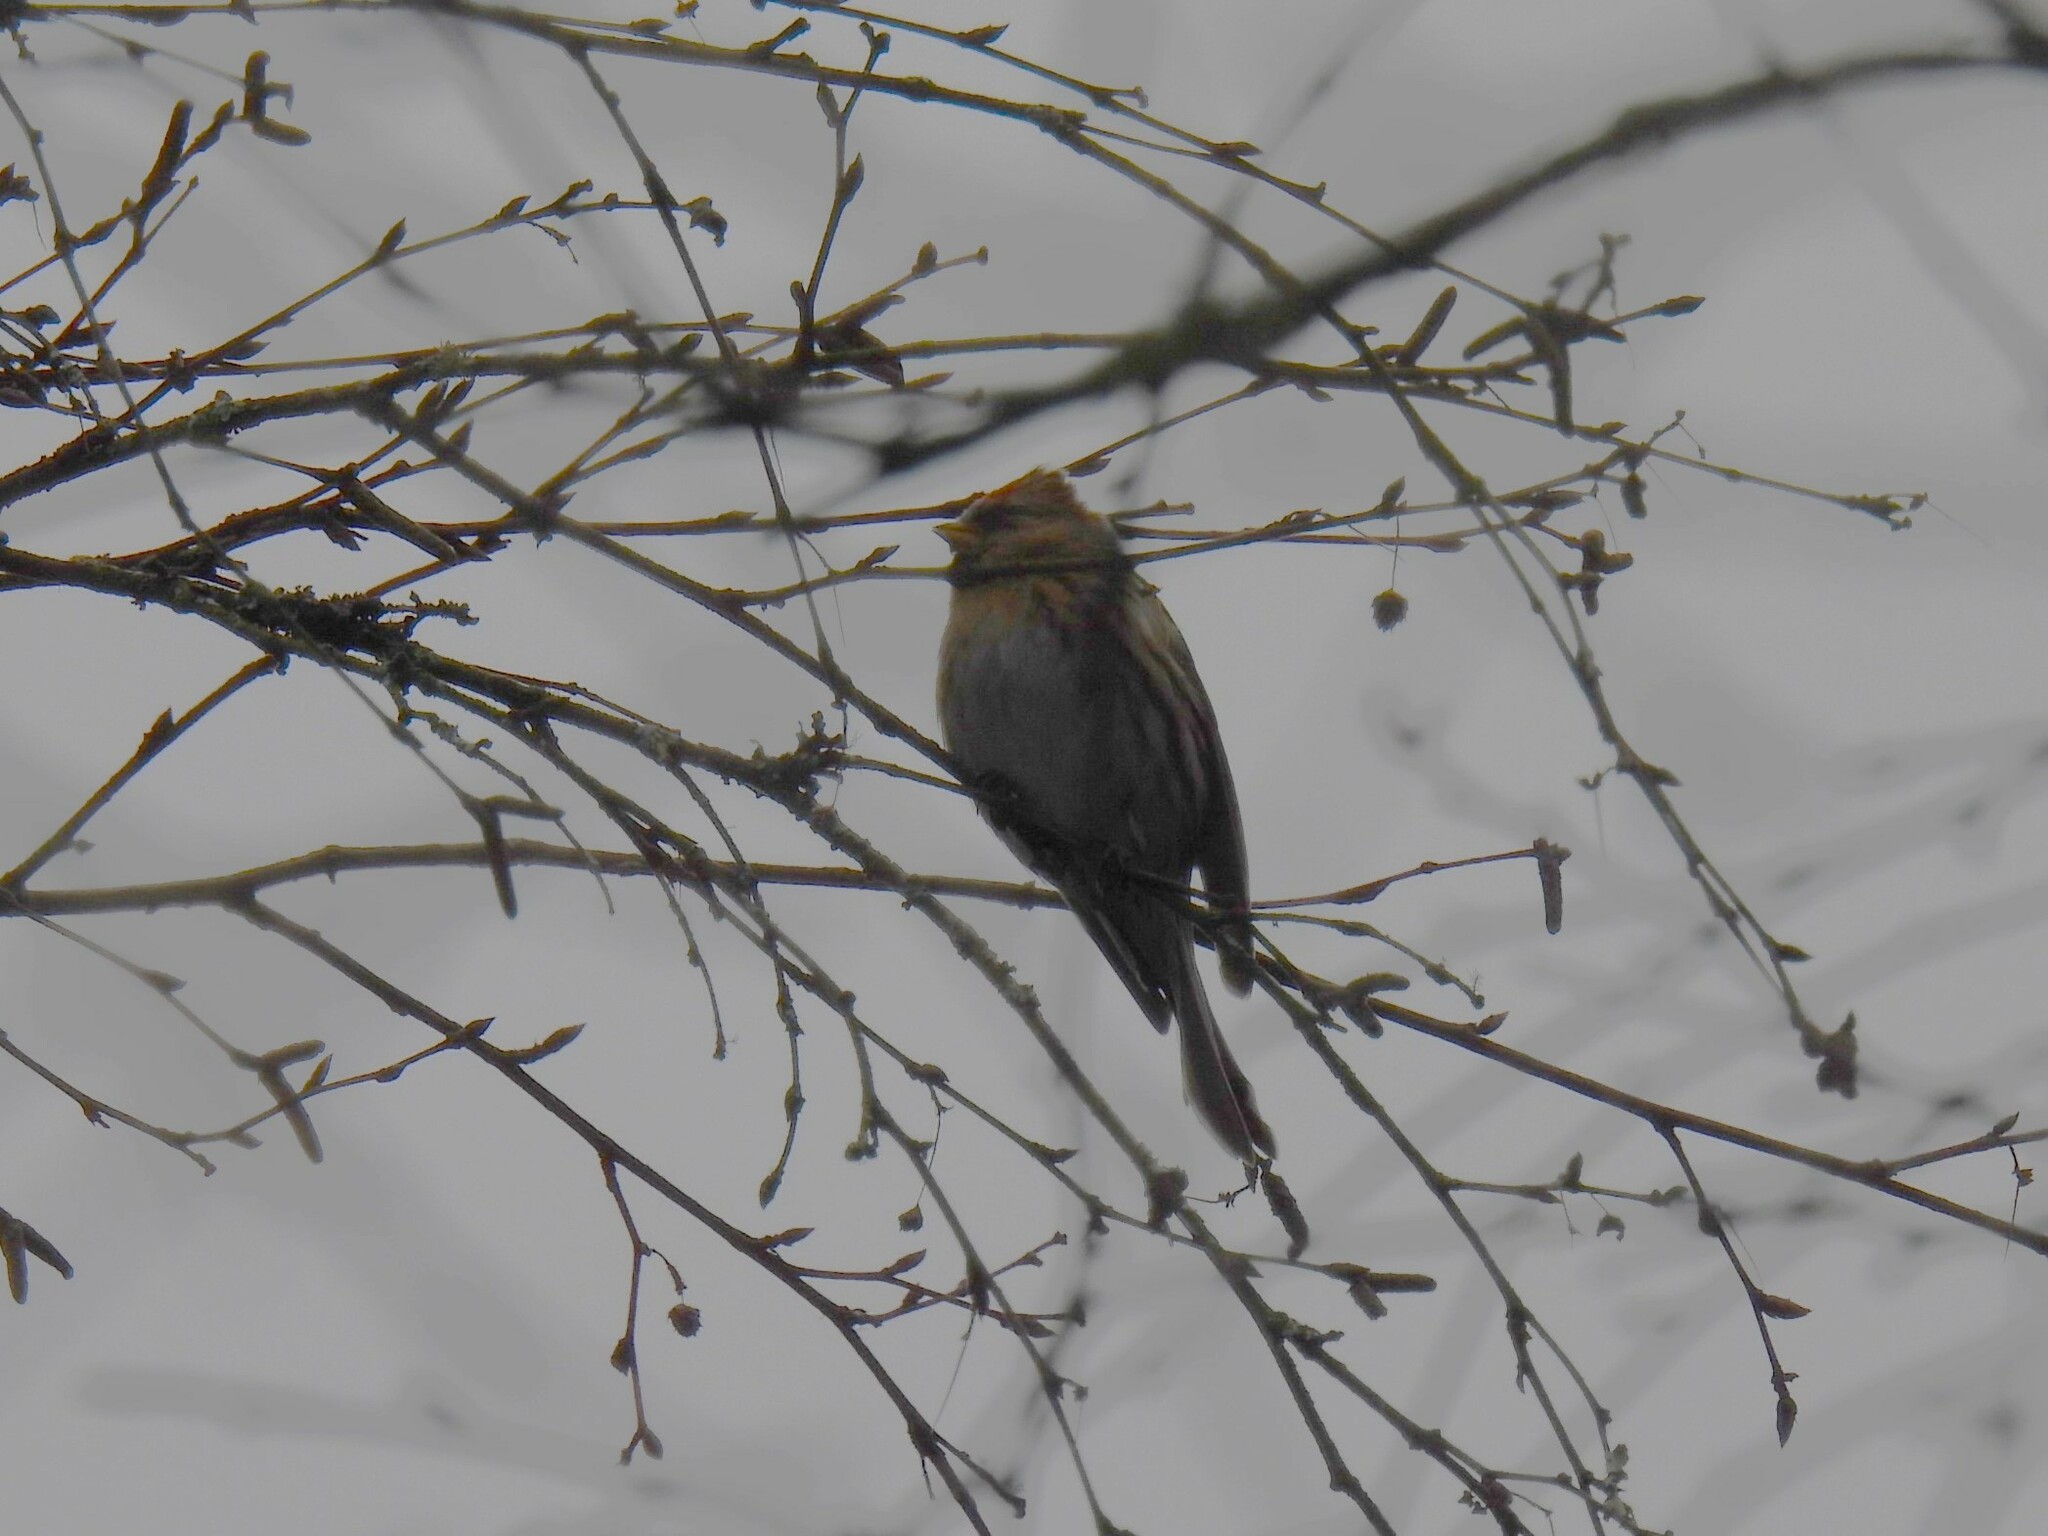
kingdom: Animalia
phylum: Chordata
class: Aves
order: Passeriformes
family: Fringillidae
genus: Acanthis
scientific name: Acanthis flammea
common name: Common redpoll
